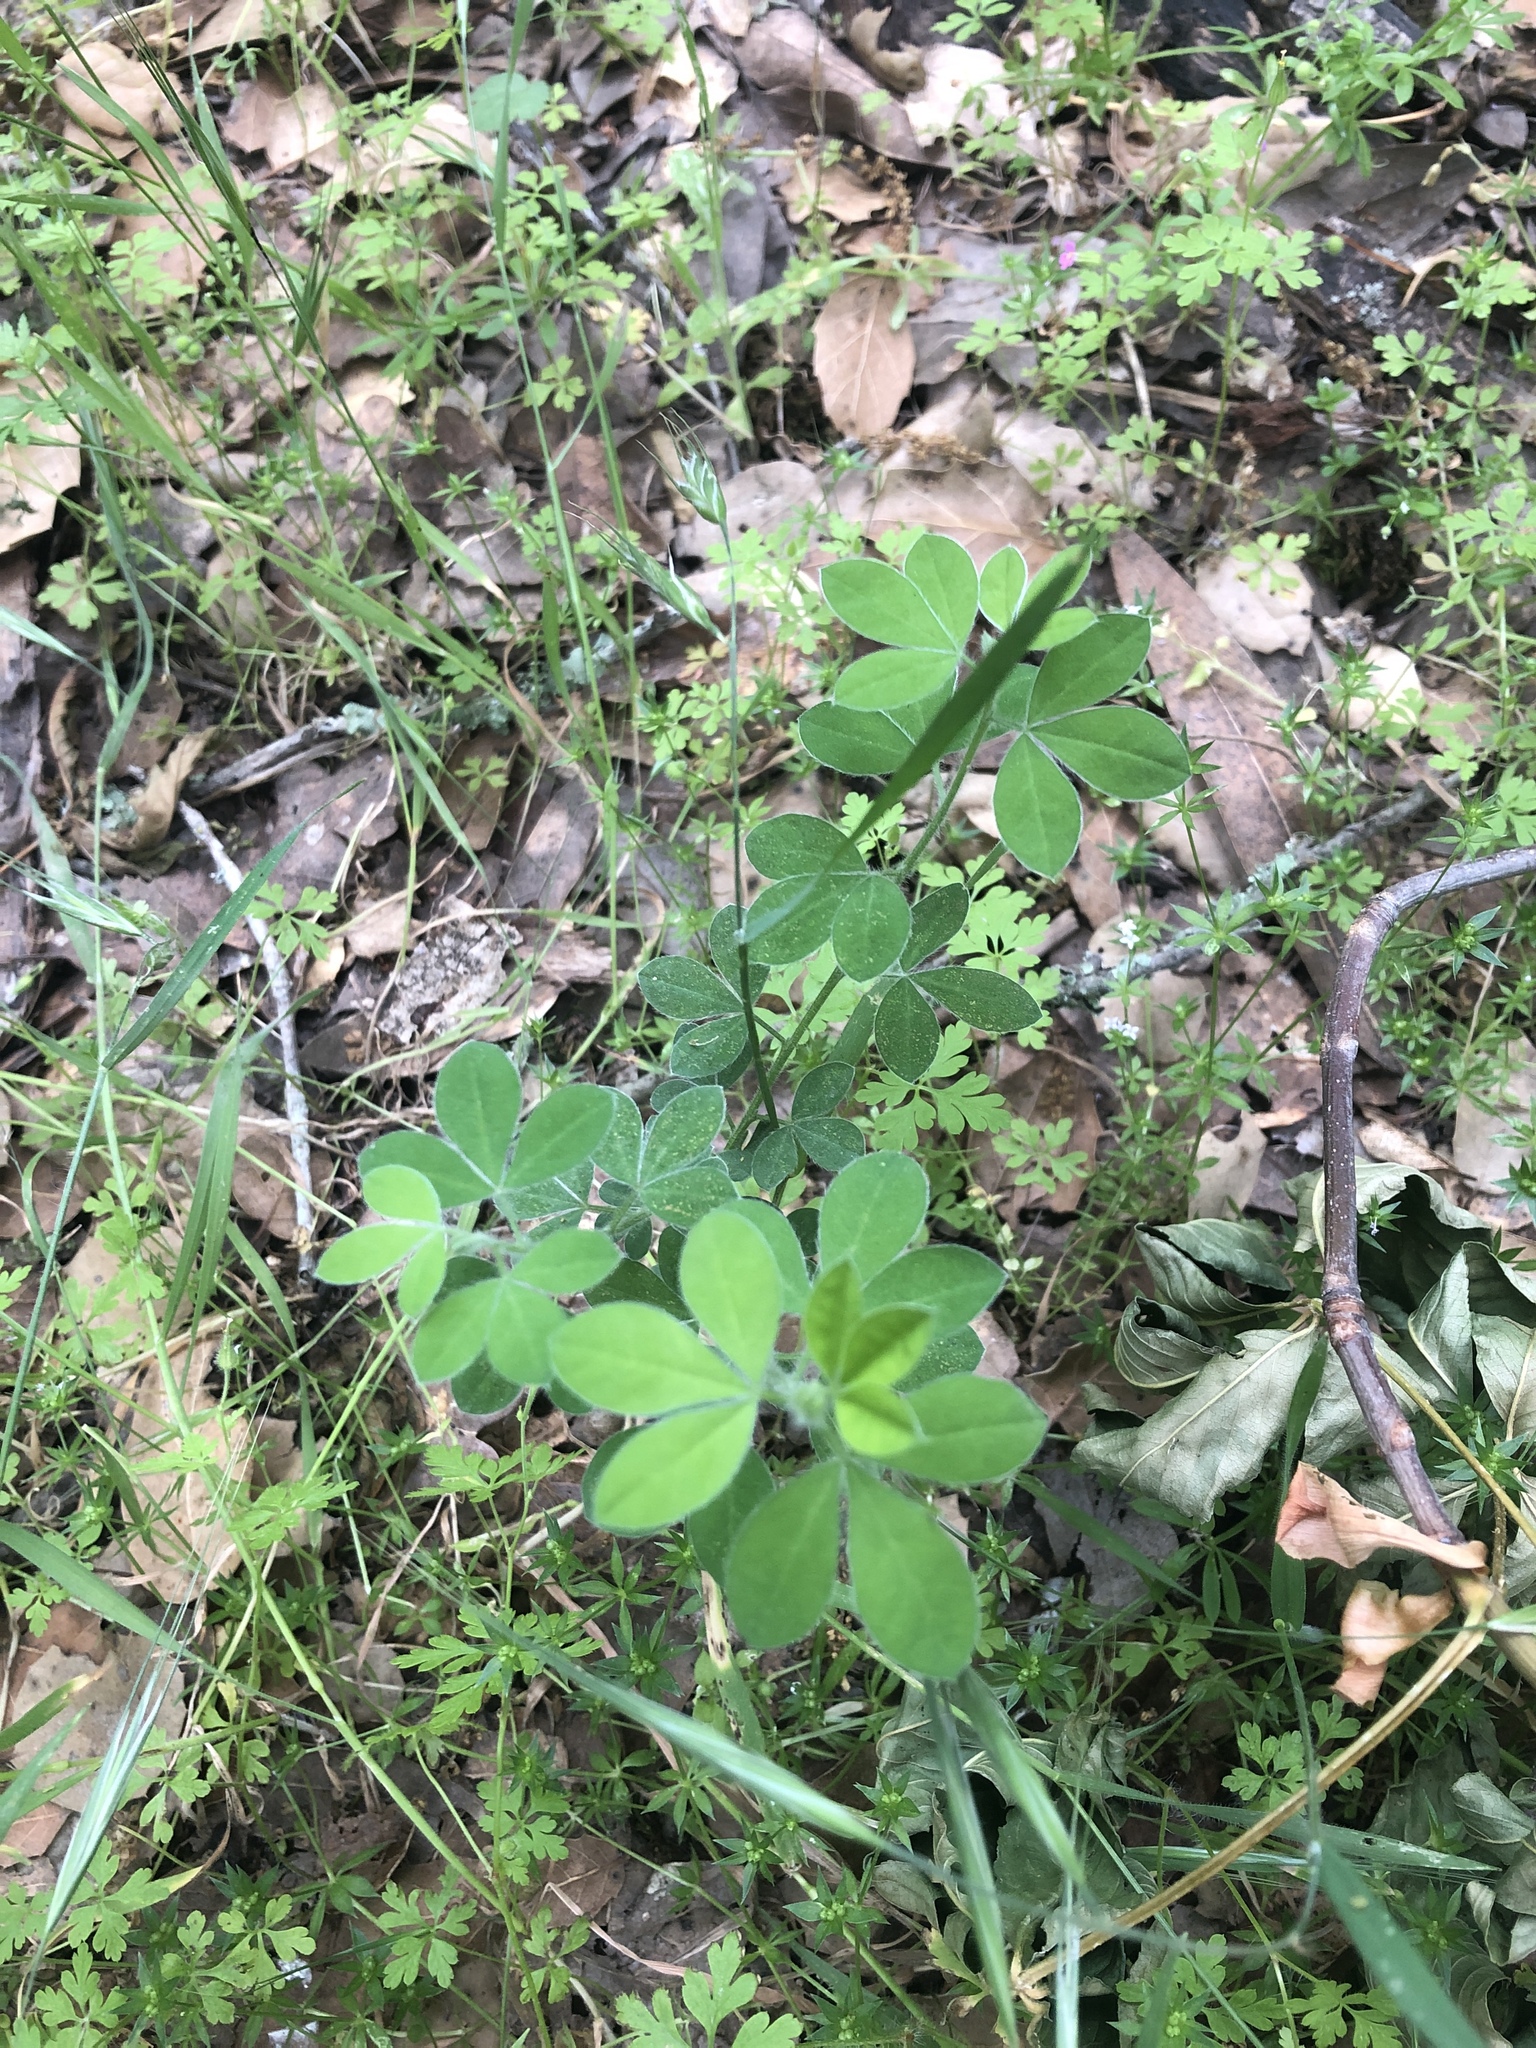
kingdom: Plantae
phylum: Tracheophyta
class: Magnoliopsida
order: Fabales
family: Fabaceae
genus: Genista
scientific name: Genista monspessulana
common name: Montpellier broom
